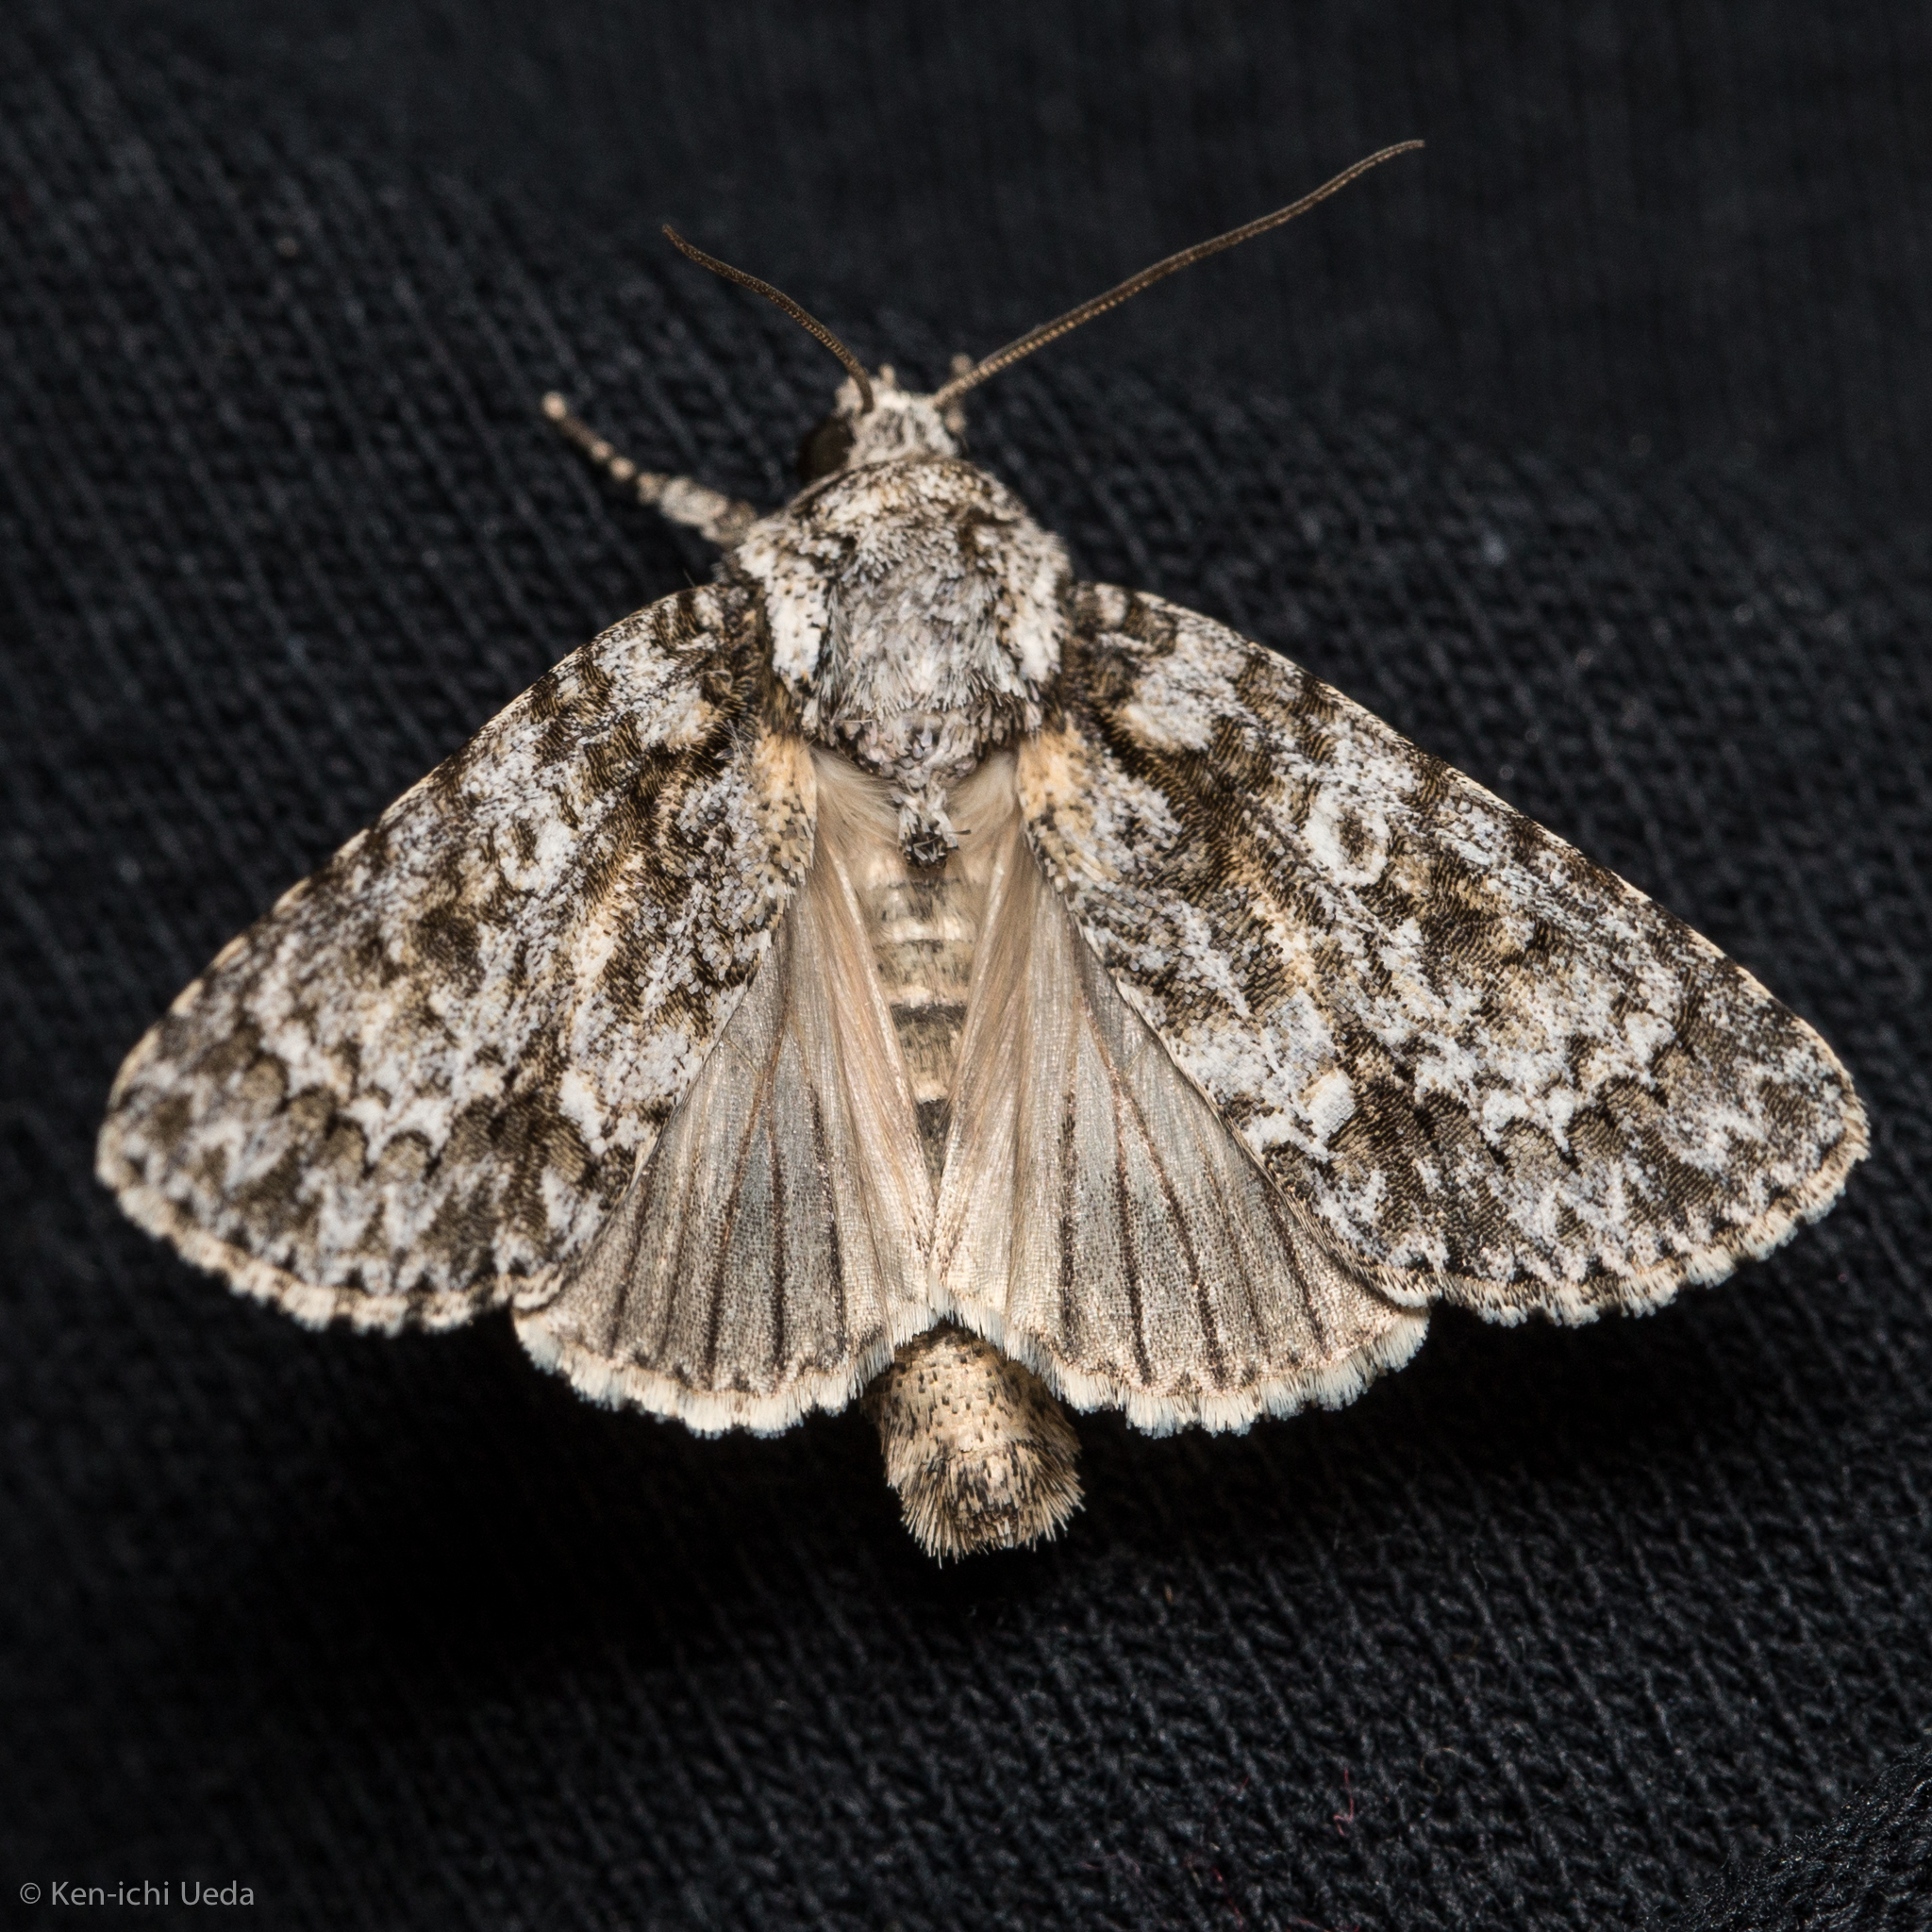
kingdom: Animalia
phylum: Arthropoda
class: Insecta
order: Lepidoptera
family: Noctuidae
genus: Acronicta
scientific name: Acronicta marmorata
